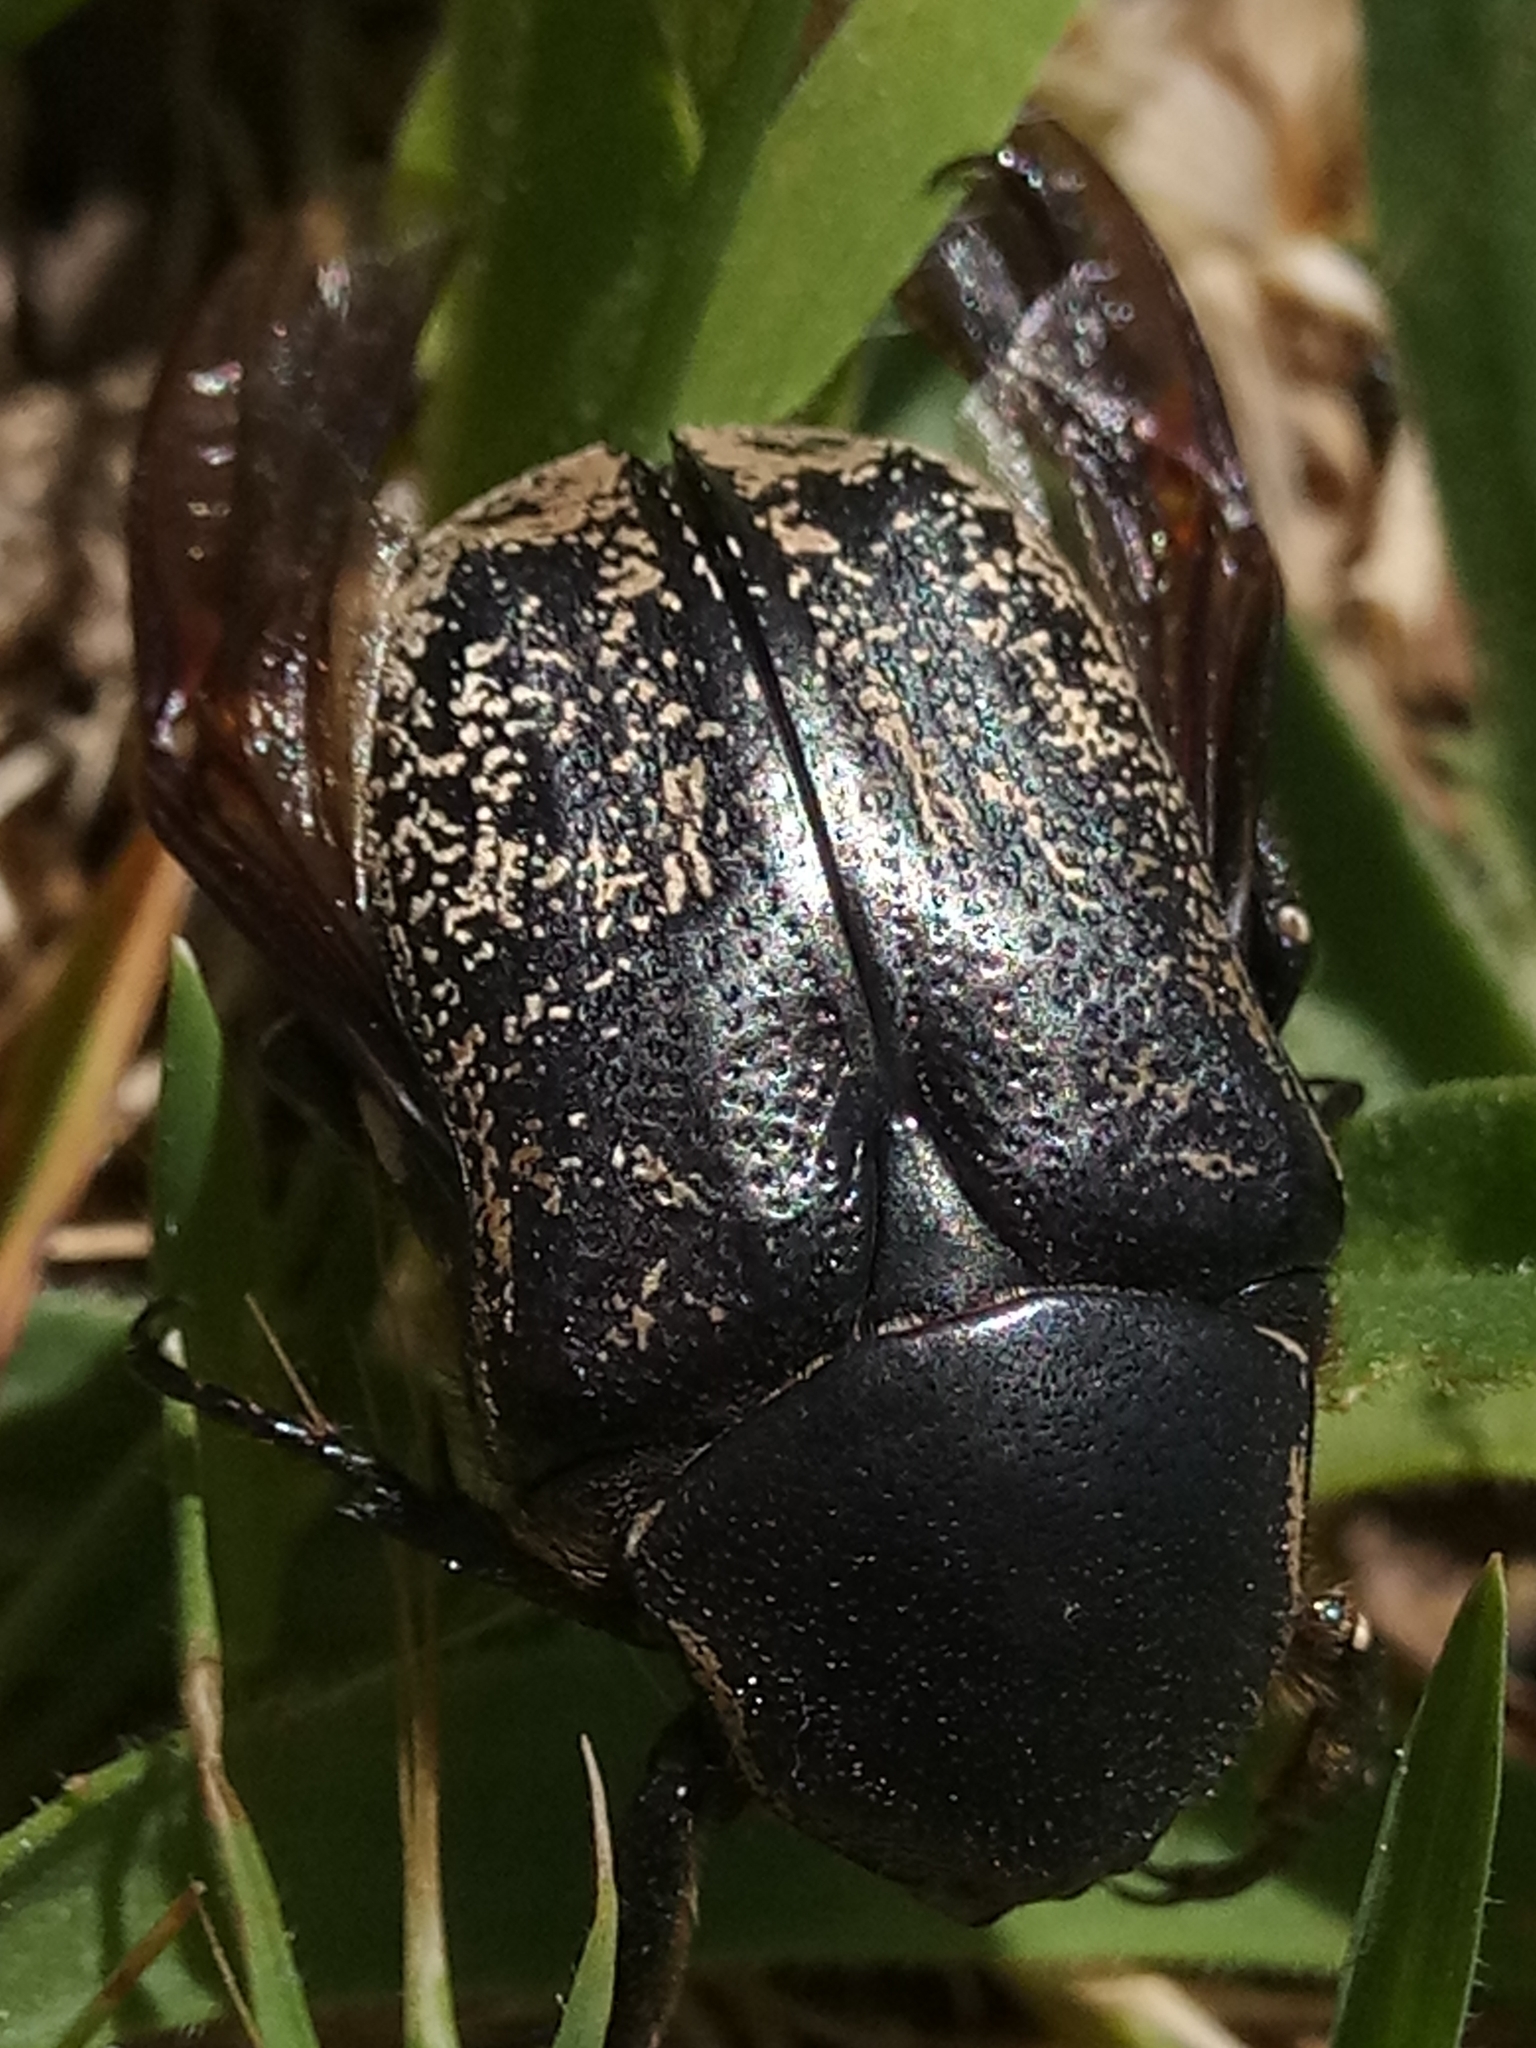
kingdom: Animalia
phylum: Arthropoda
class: Insecta
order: Coleoptera
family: Scarabaeidae
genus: Aethiessa
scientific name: Aethiessa floralis
